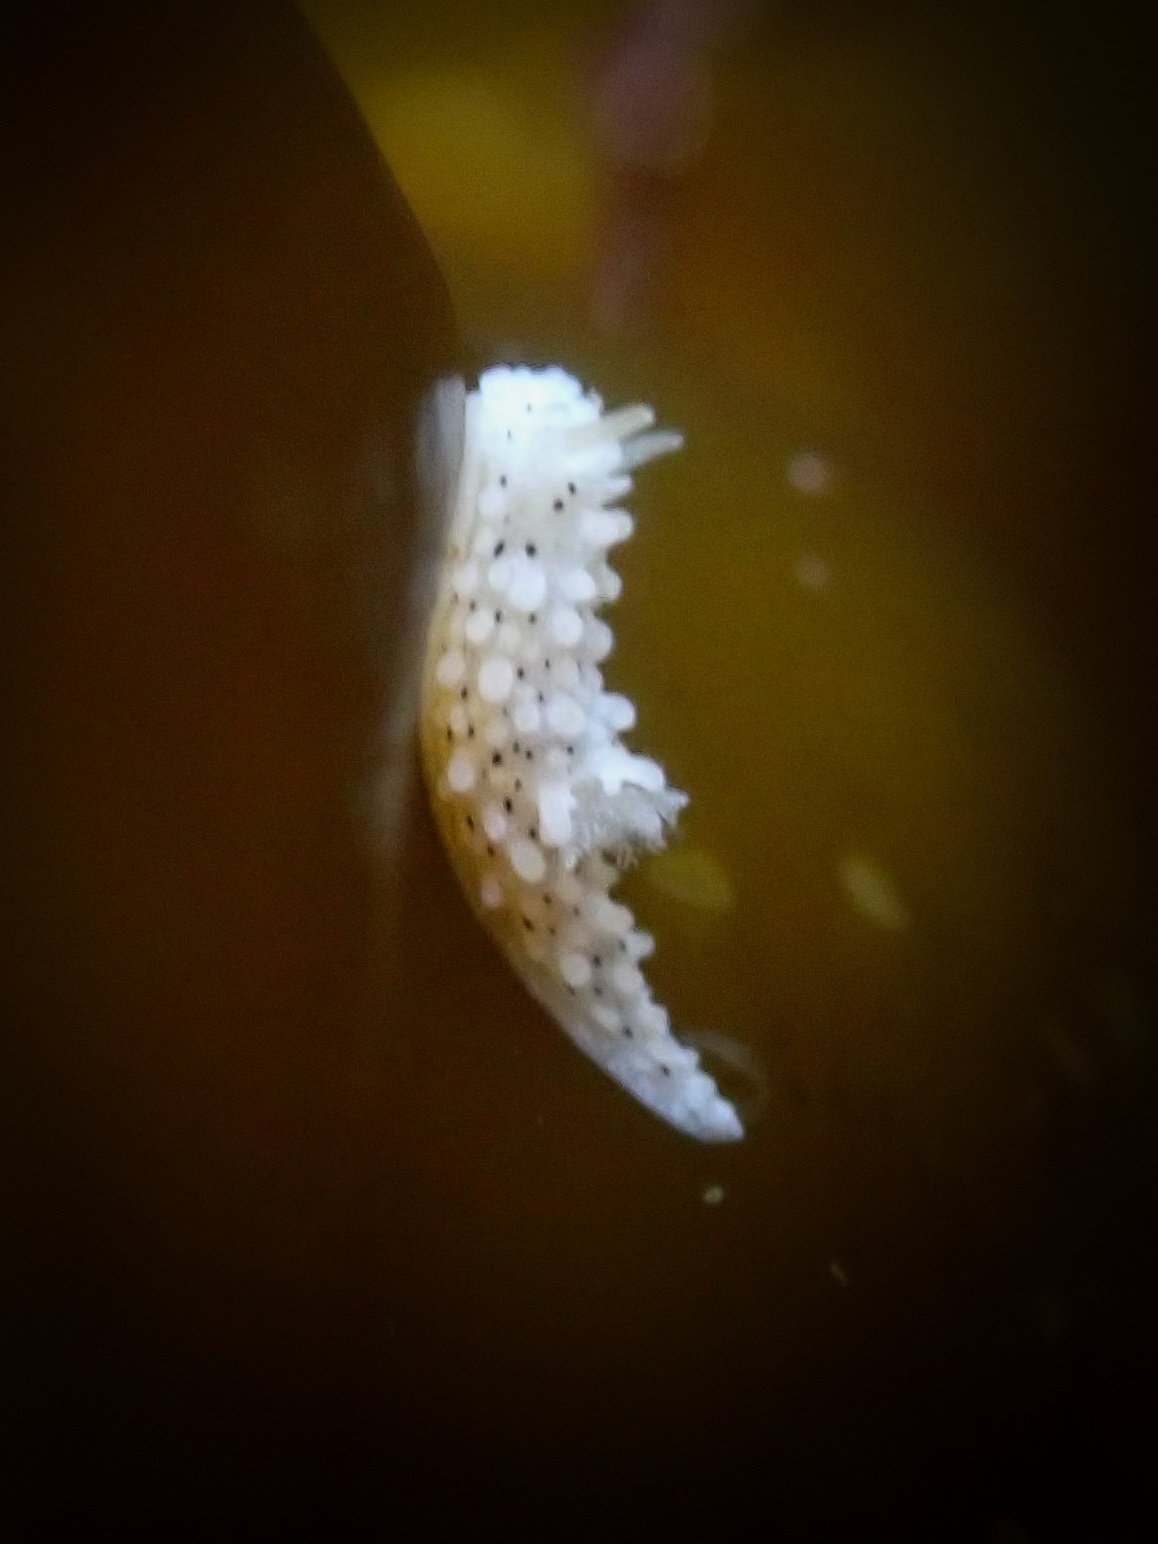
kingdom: Animalia
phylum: Mollusca
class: Gastropoda
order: Nudibranchia
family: Aegiridae
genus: Aegires
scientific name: Aegires albopunctatus
